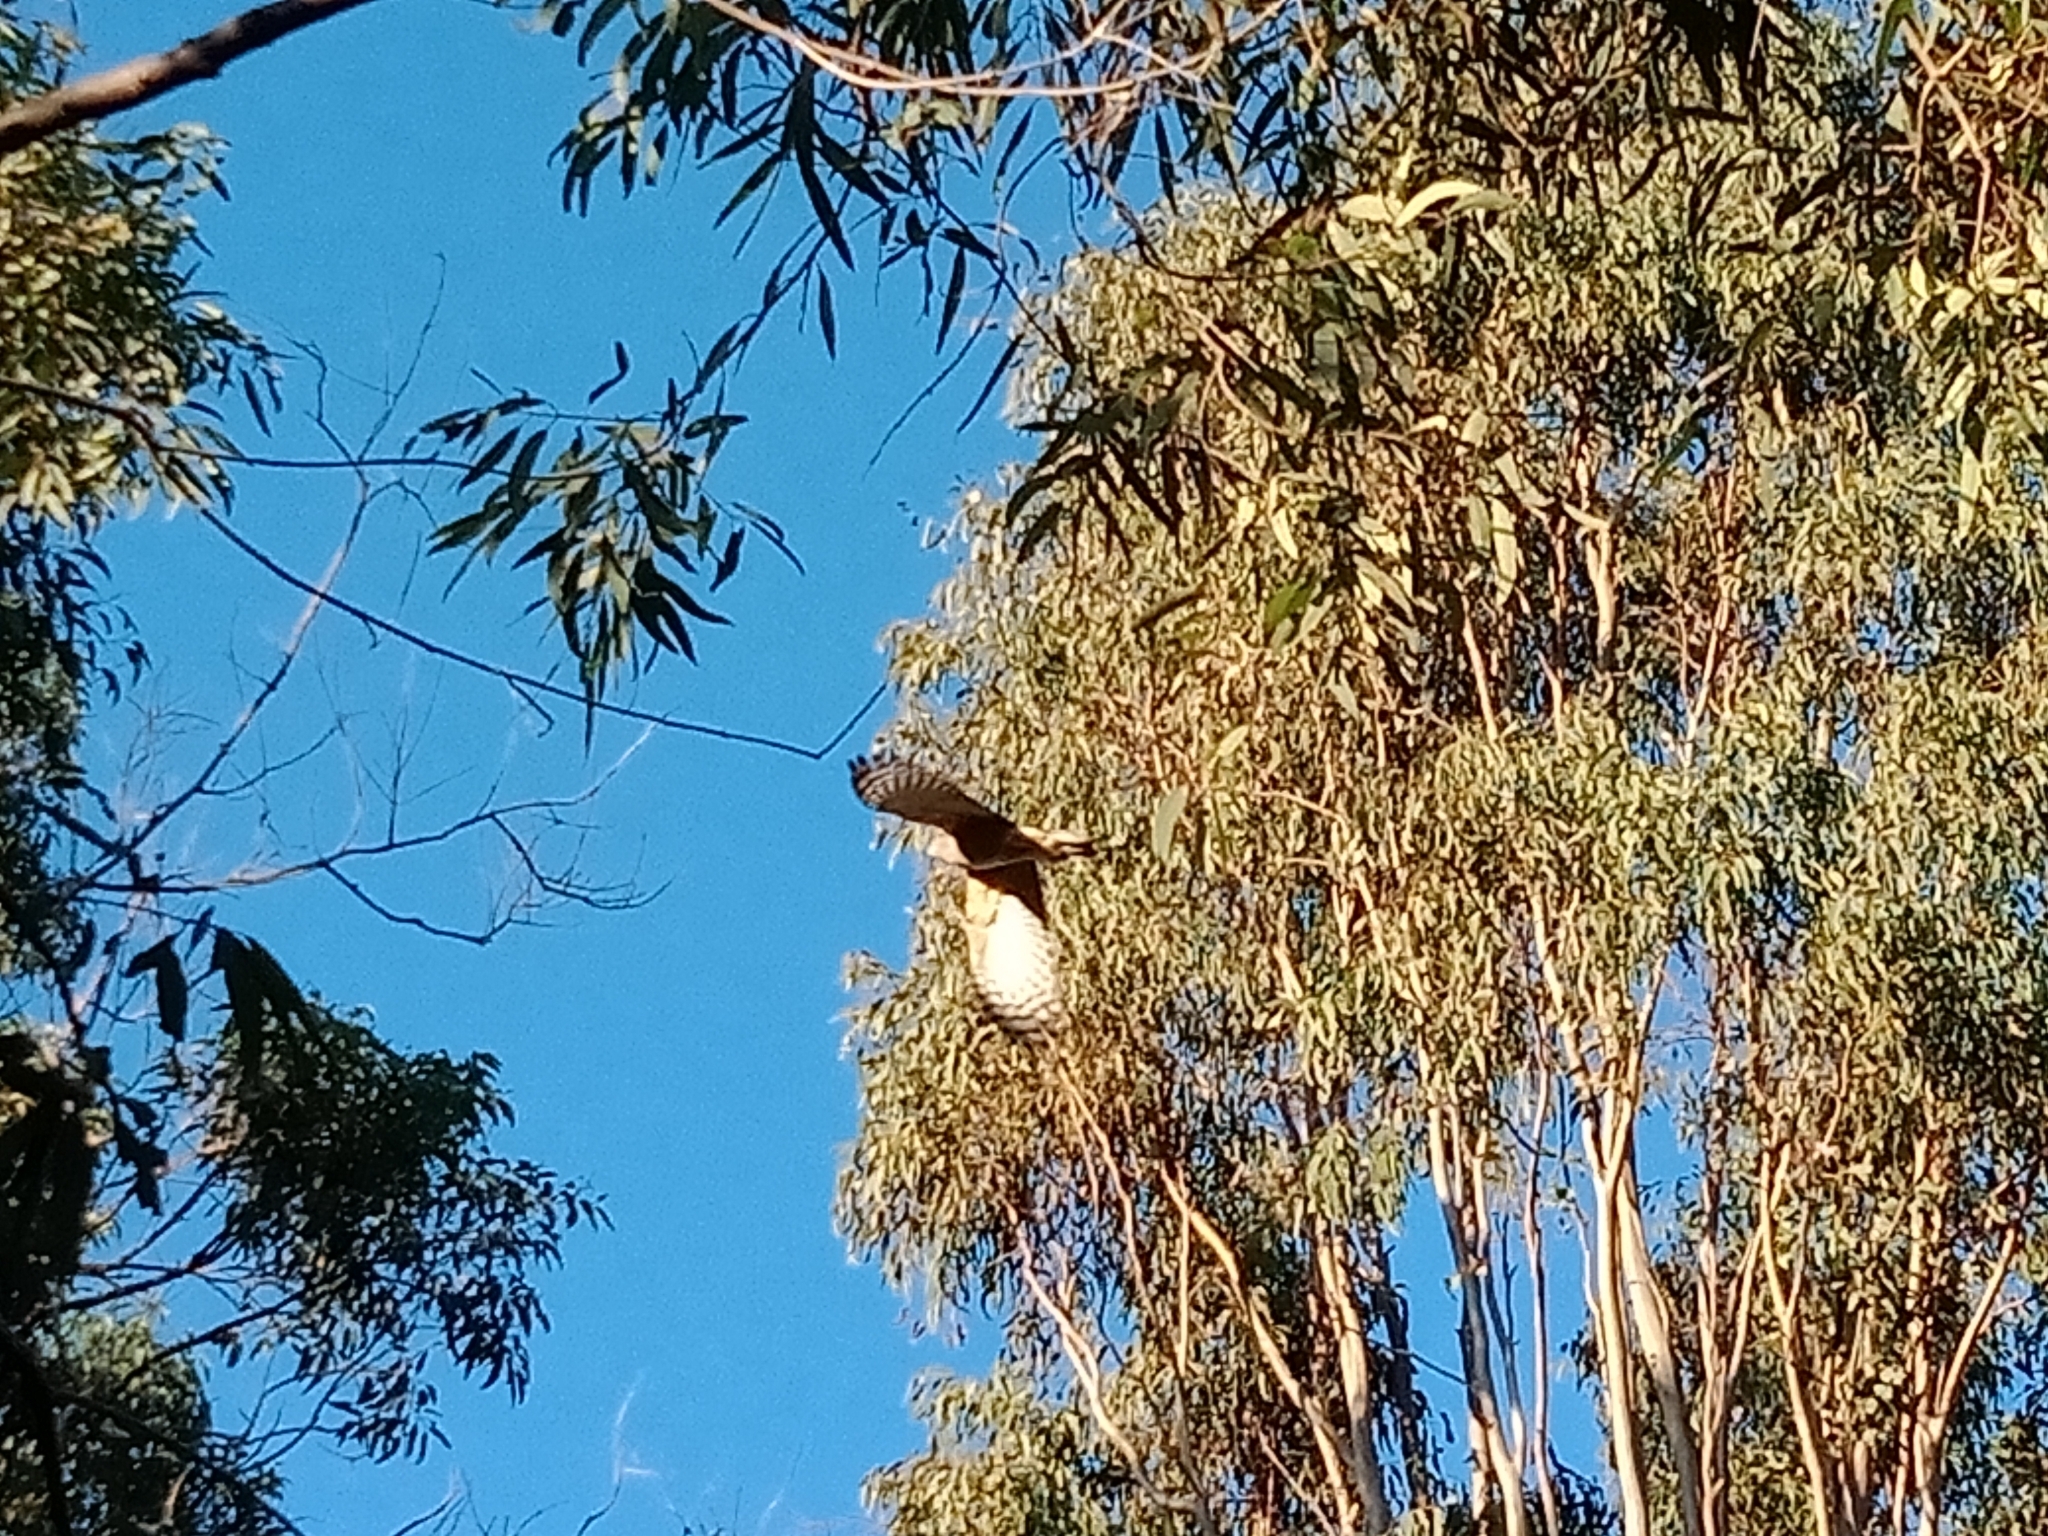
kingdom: Animalia
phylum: Chordata
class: Aves
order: Accipitriformes
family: Accipitridae
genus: Aviceda
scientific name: Aviceda subcristata
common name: Pacific baza
